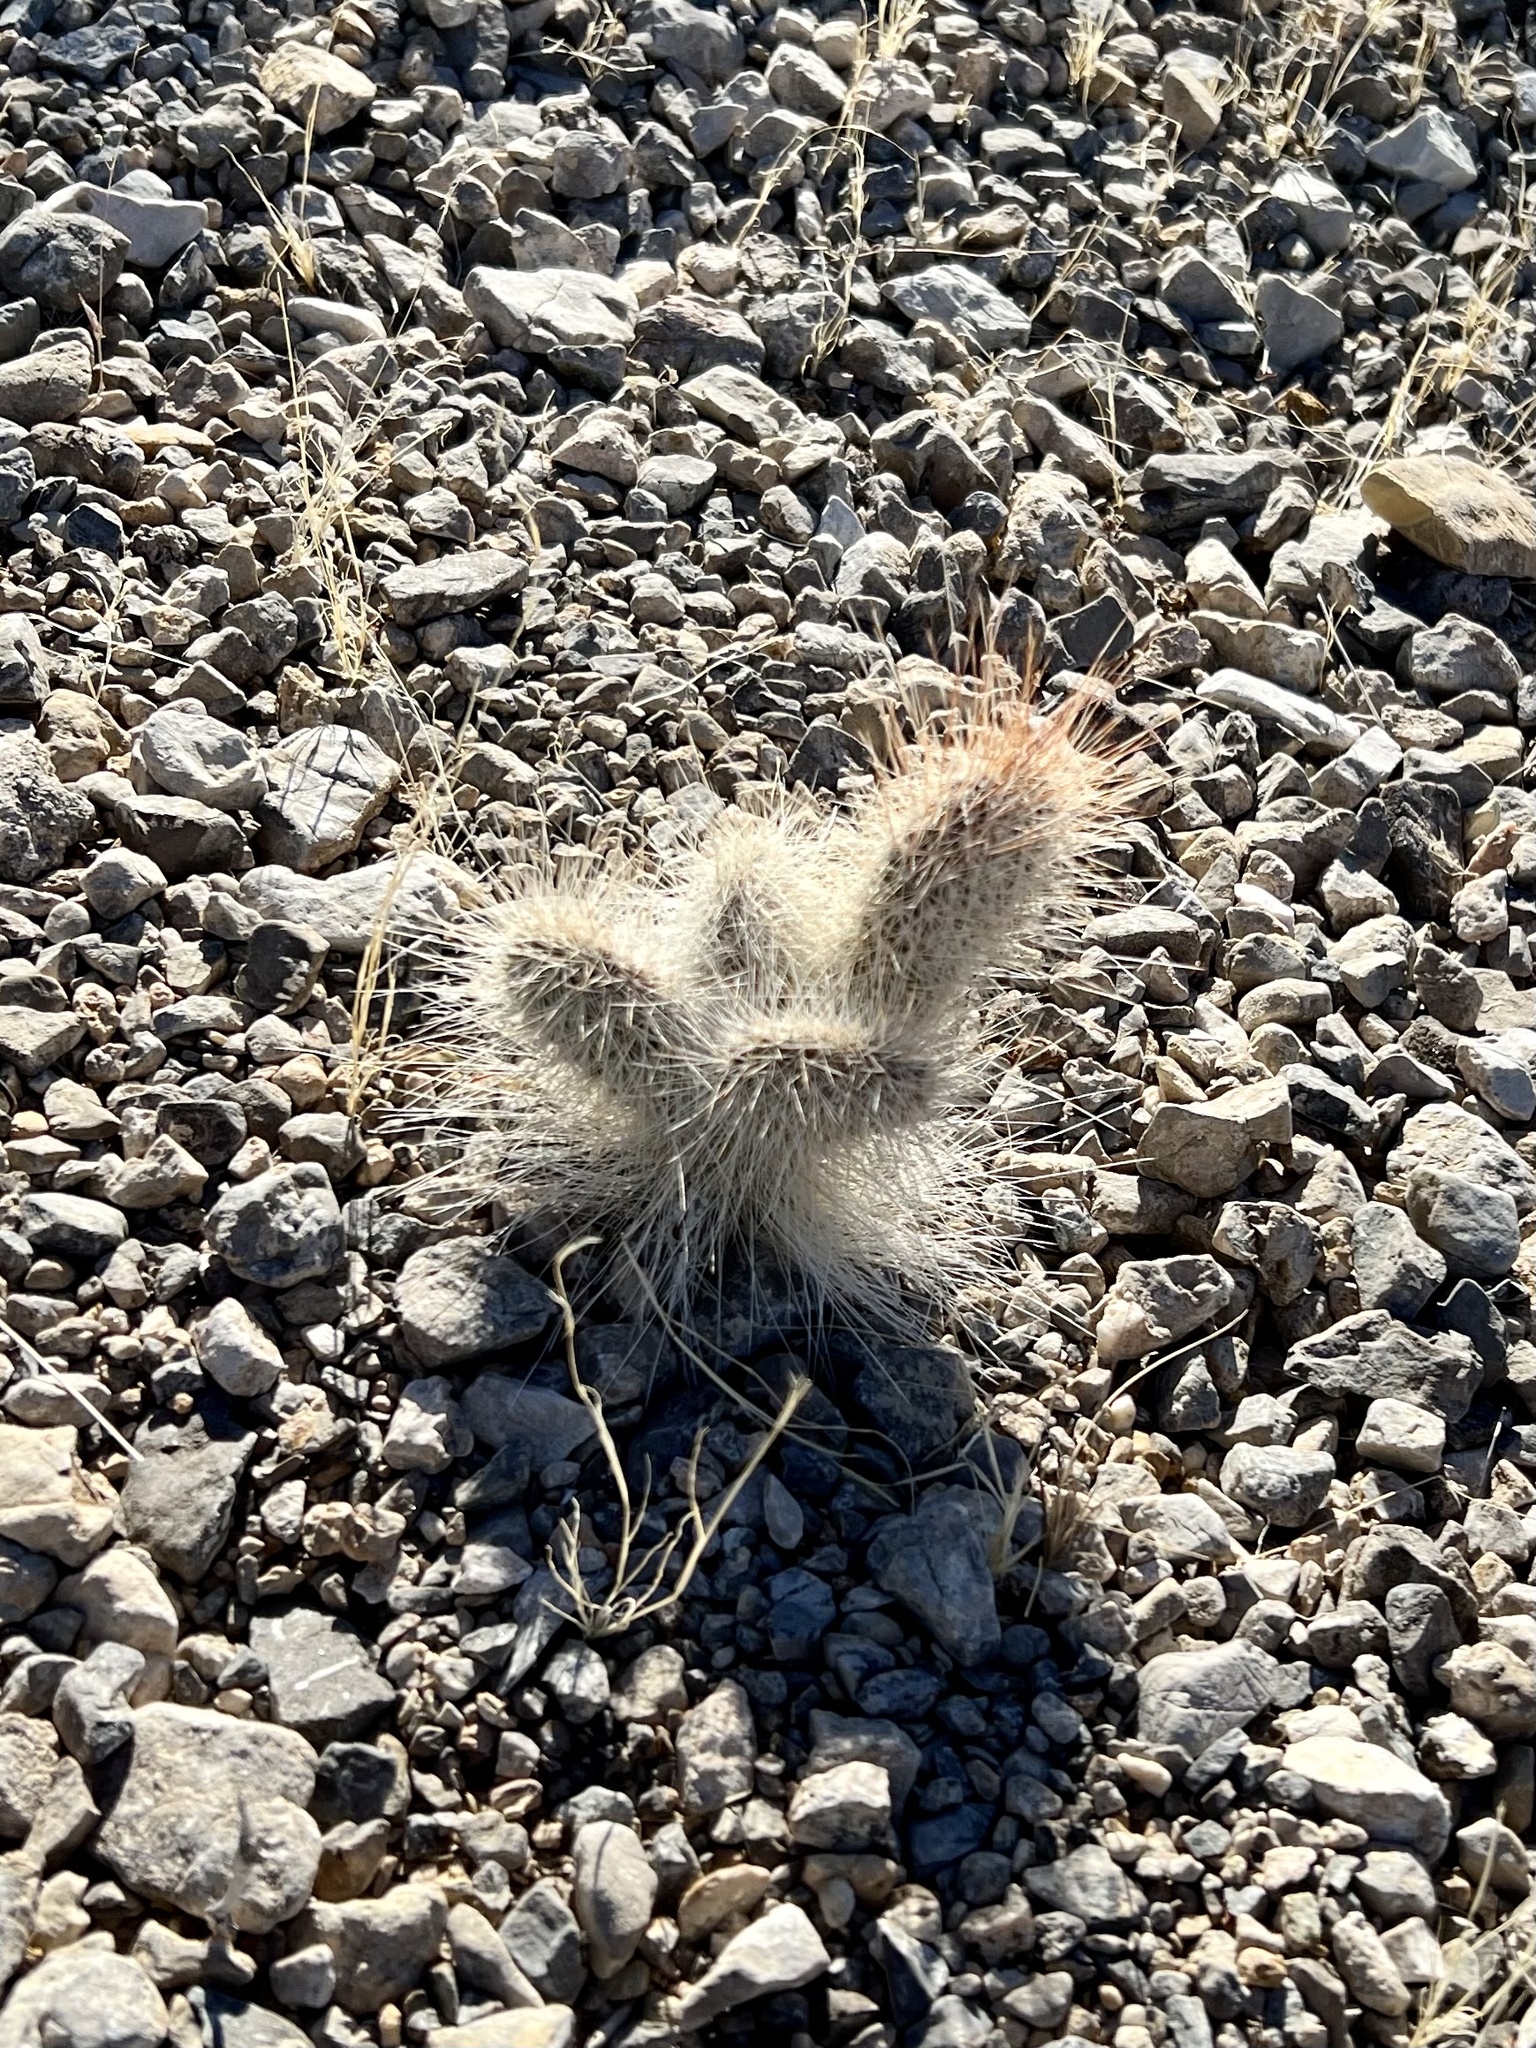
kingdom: Plantae
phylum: Tracheophyta
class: Magnoliopsida
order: Caryophyllales
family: Cactaceae
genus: Opuntia
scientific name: Opuntia polyacantha
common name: Plains prickly-pear
